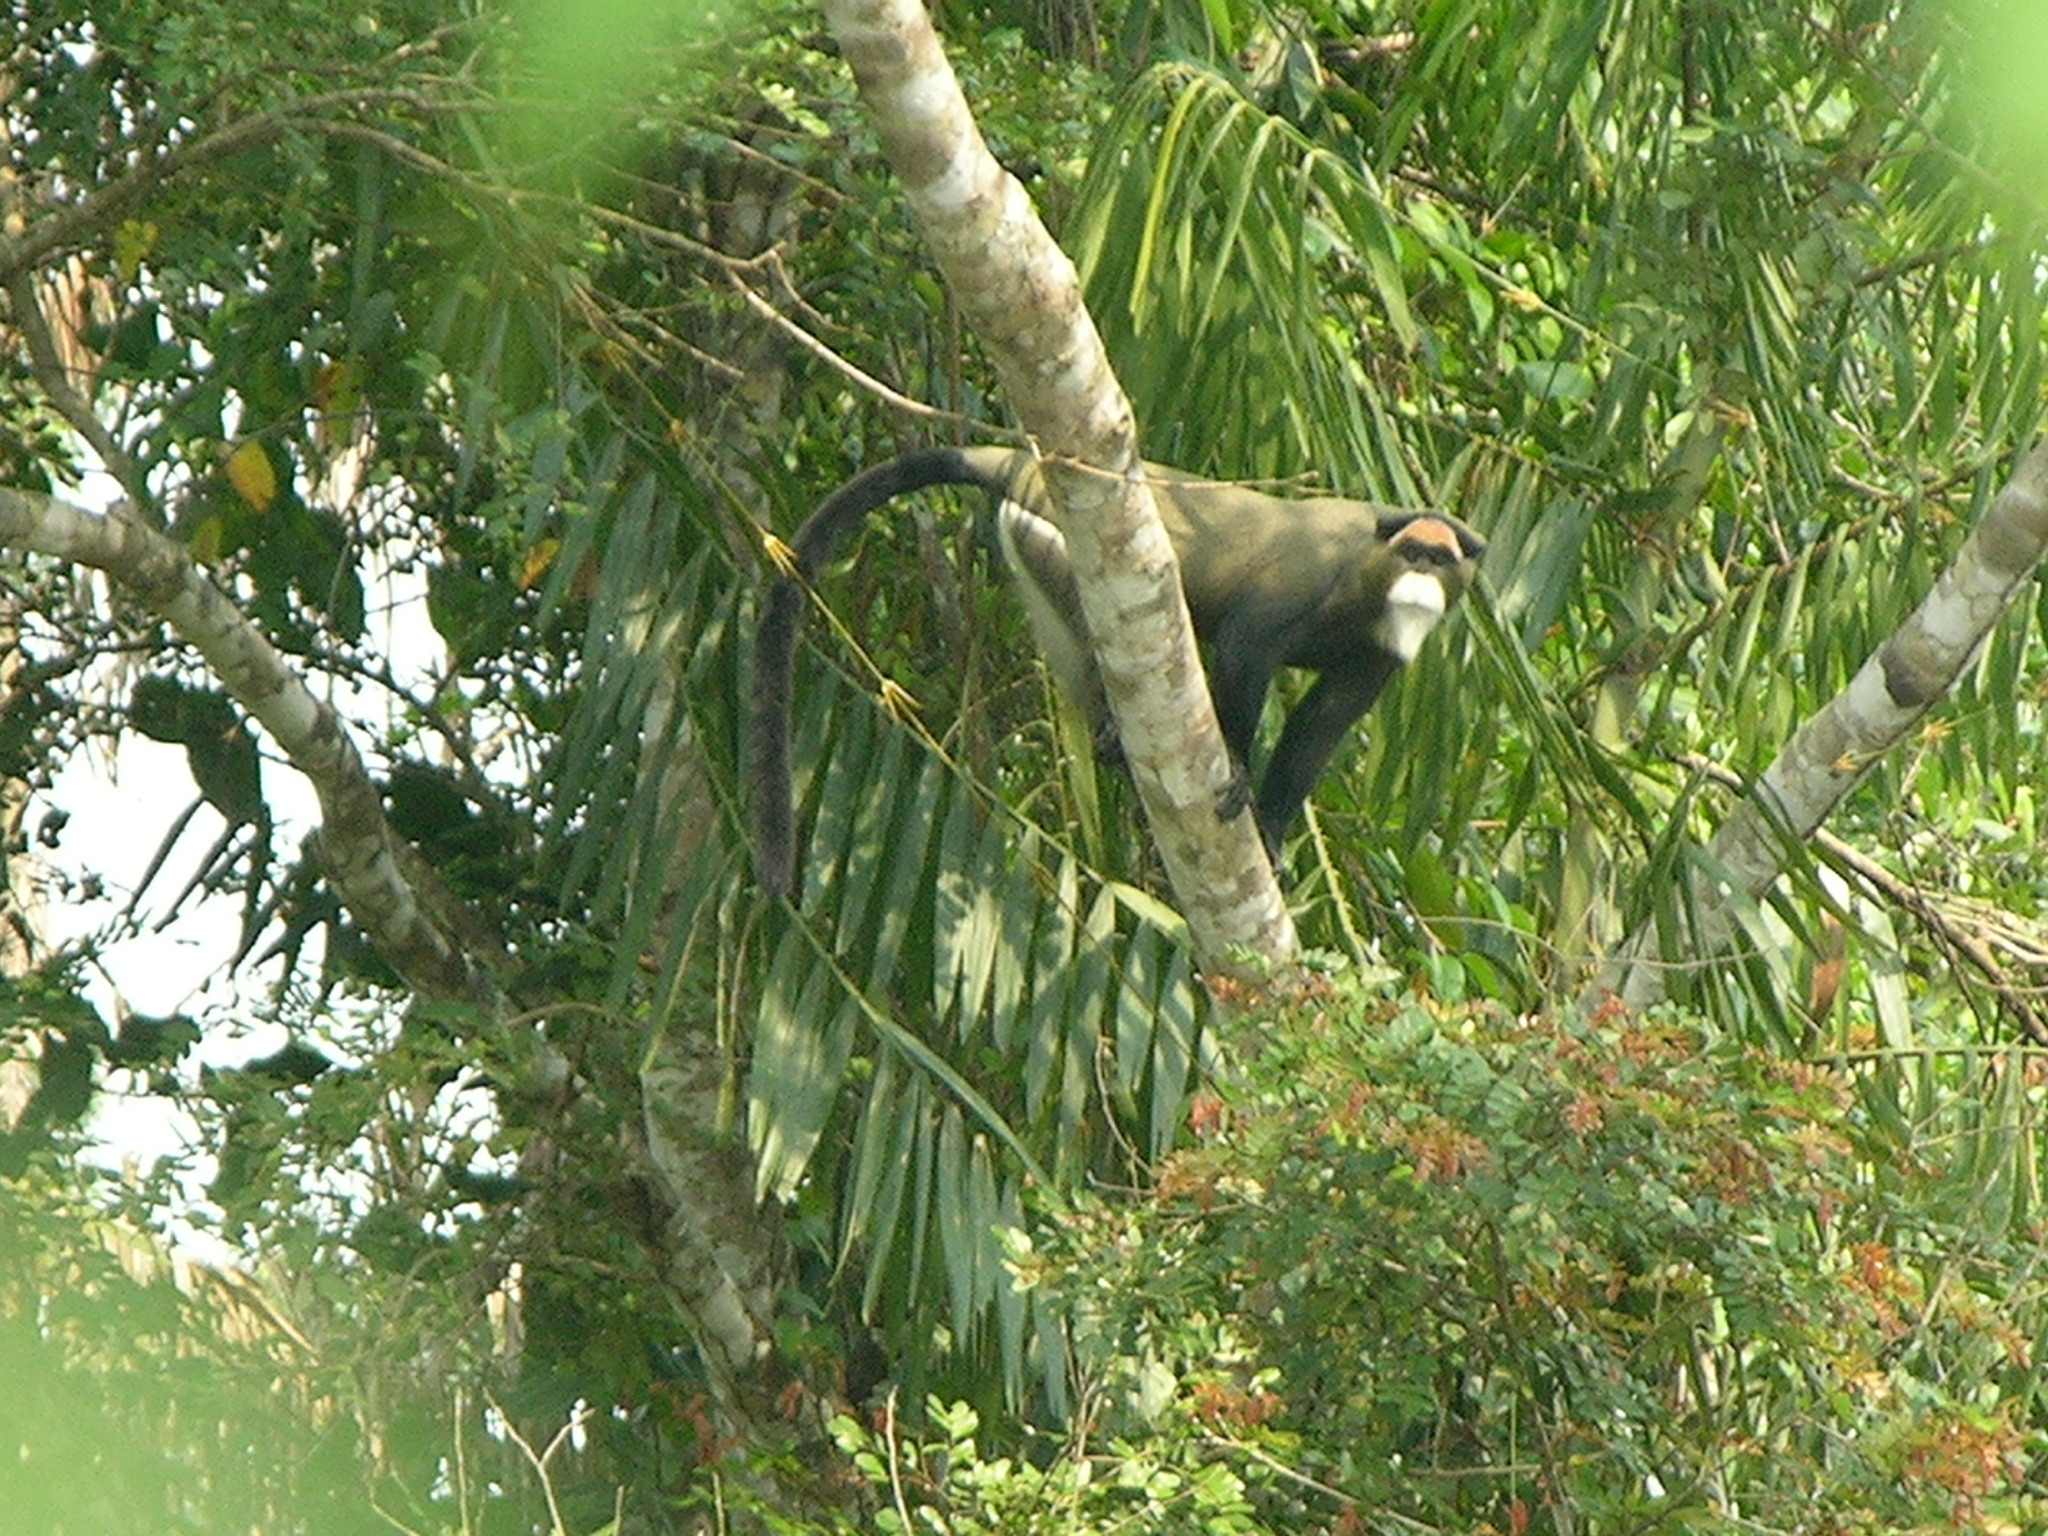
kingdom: Animalia
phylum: Chordata
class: Mammalia
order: Primates
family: Cercopithecidae
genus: Cercopithecus
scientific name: Cercopithecus neglectus
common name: De brazza's guenon
